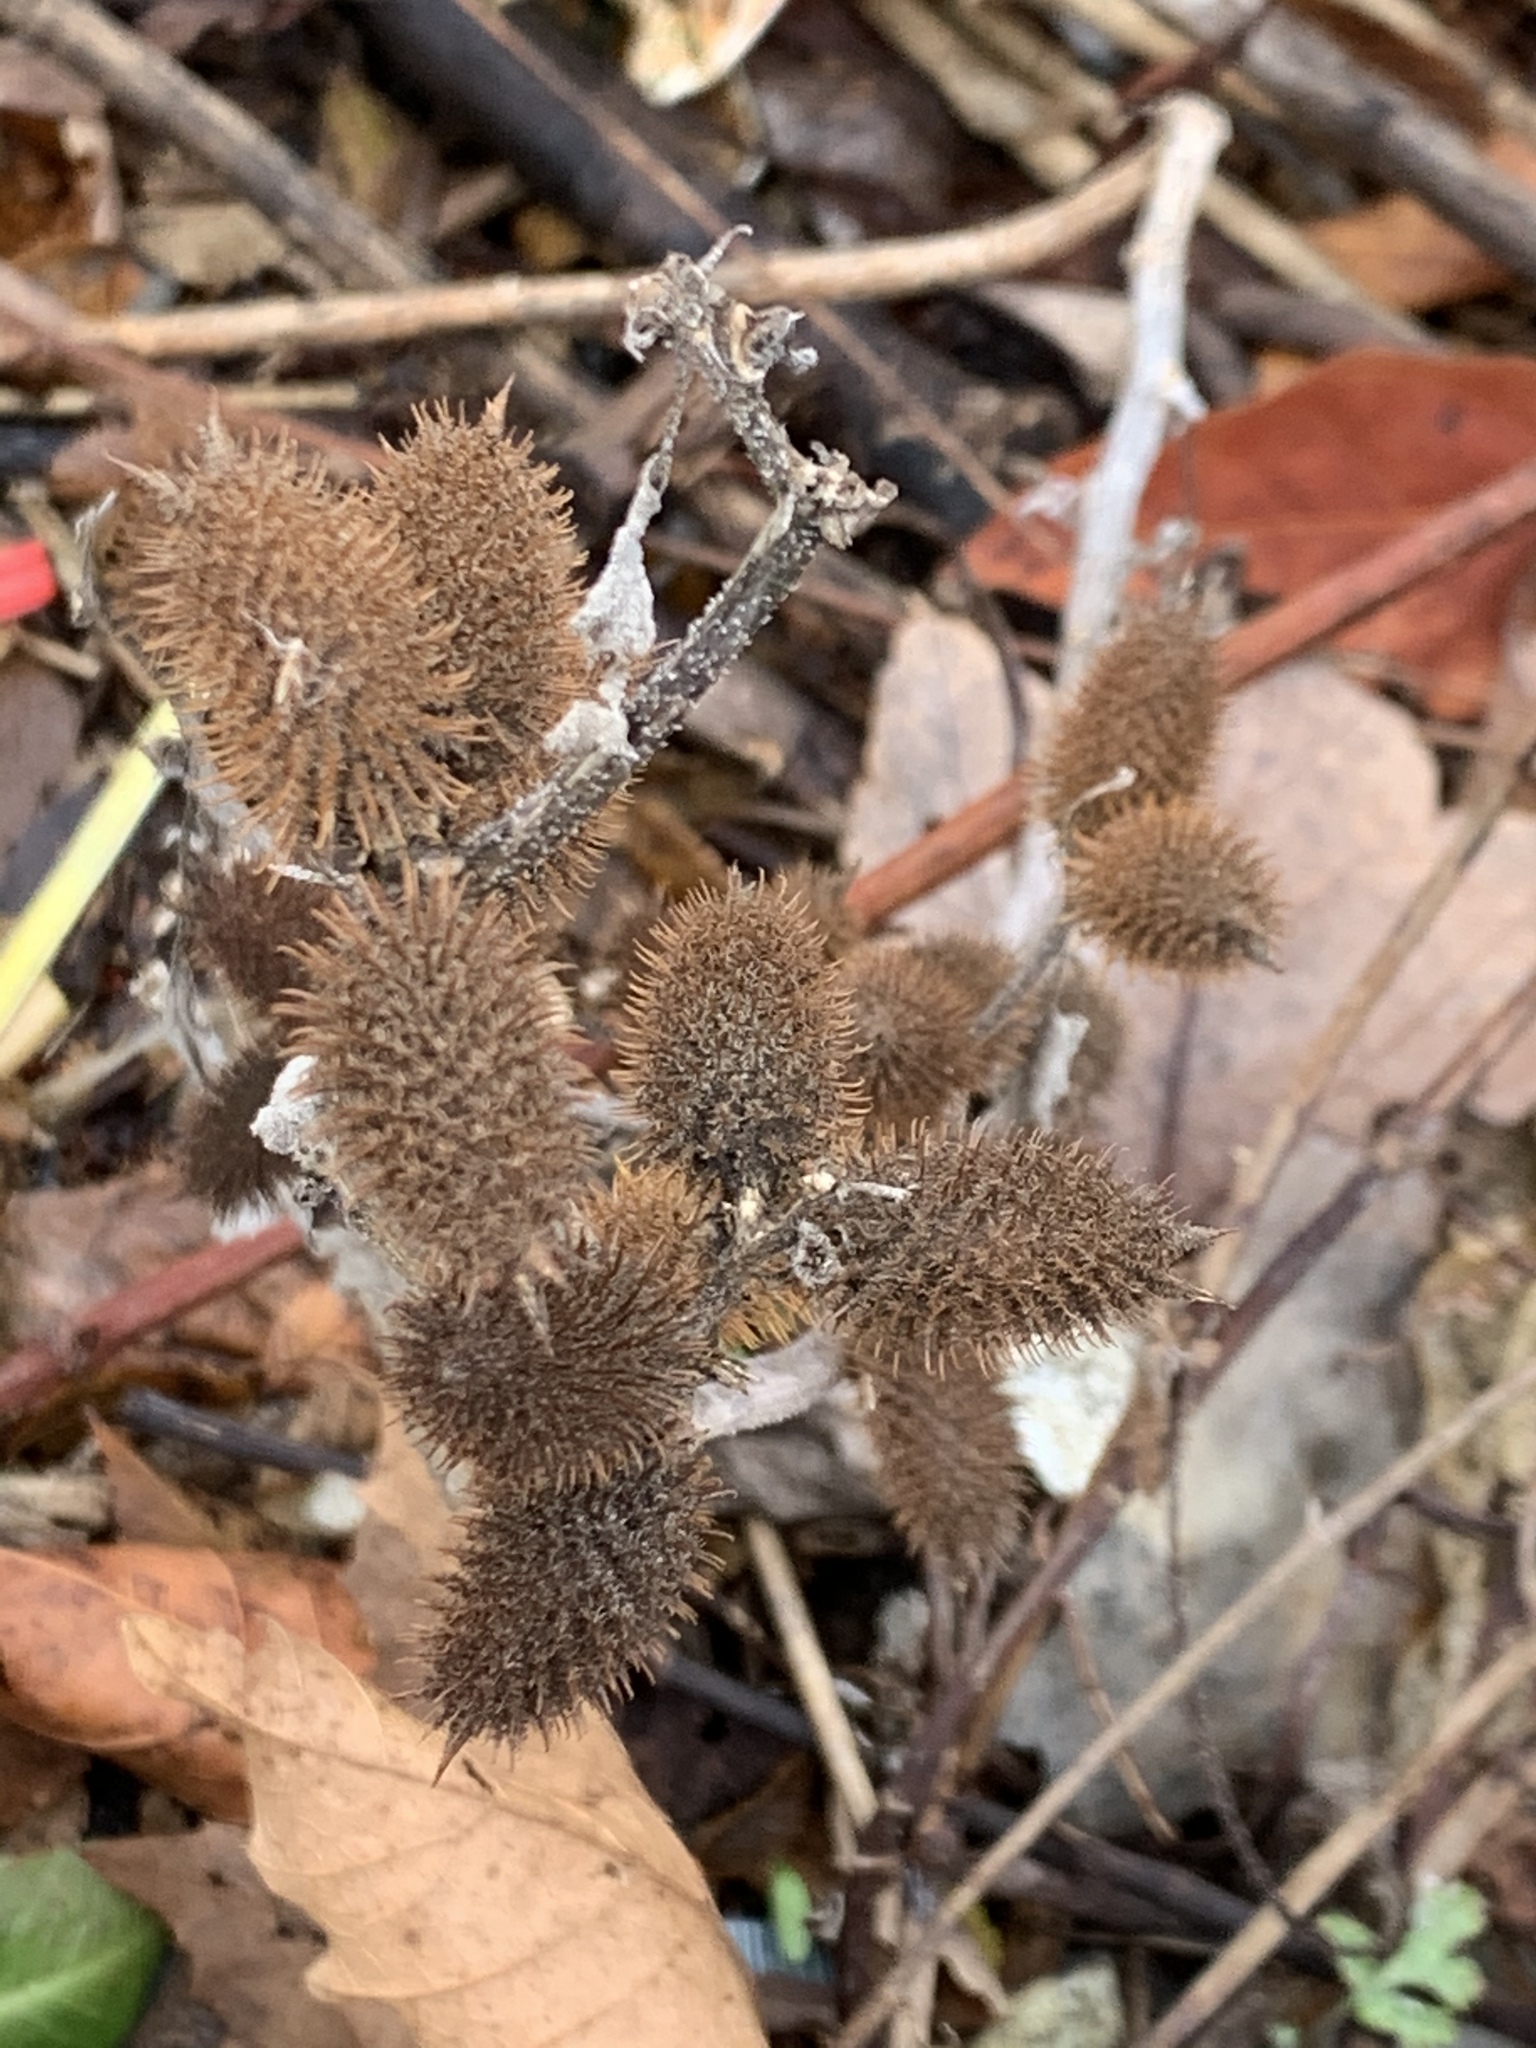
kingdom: Plantae
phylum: Tracheophyta
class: Magnoliopsida
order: Asterales
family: Asteraceae
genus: Xanthium
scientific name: Xanthium strumarium
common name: Rough cocklebur
